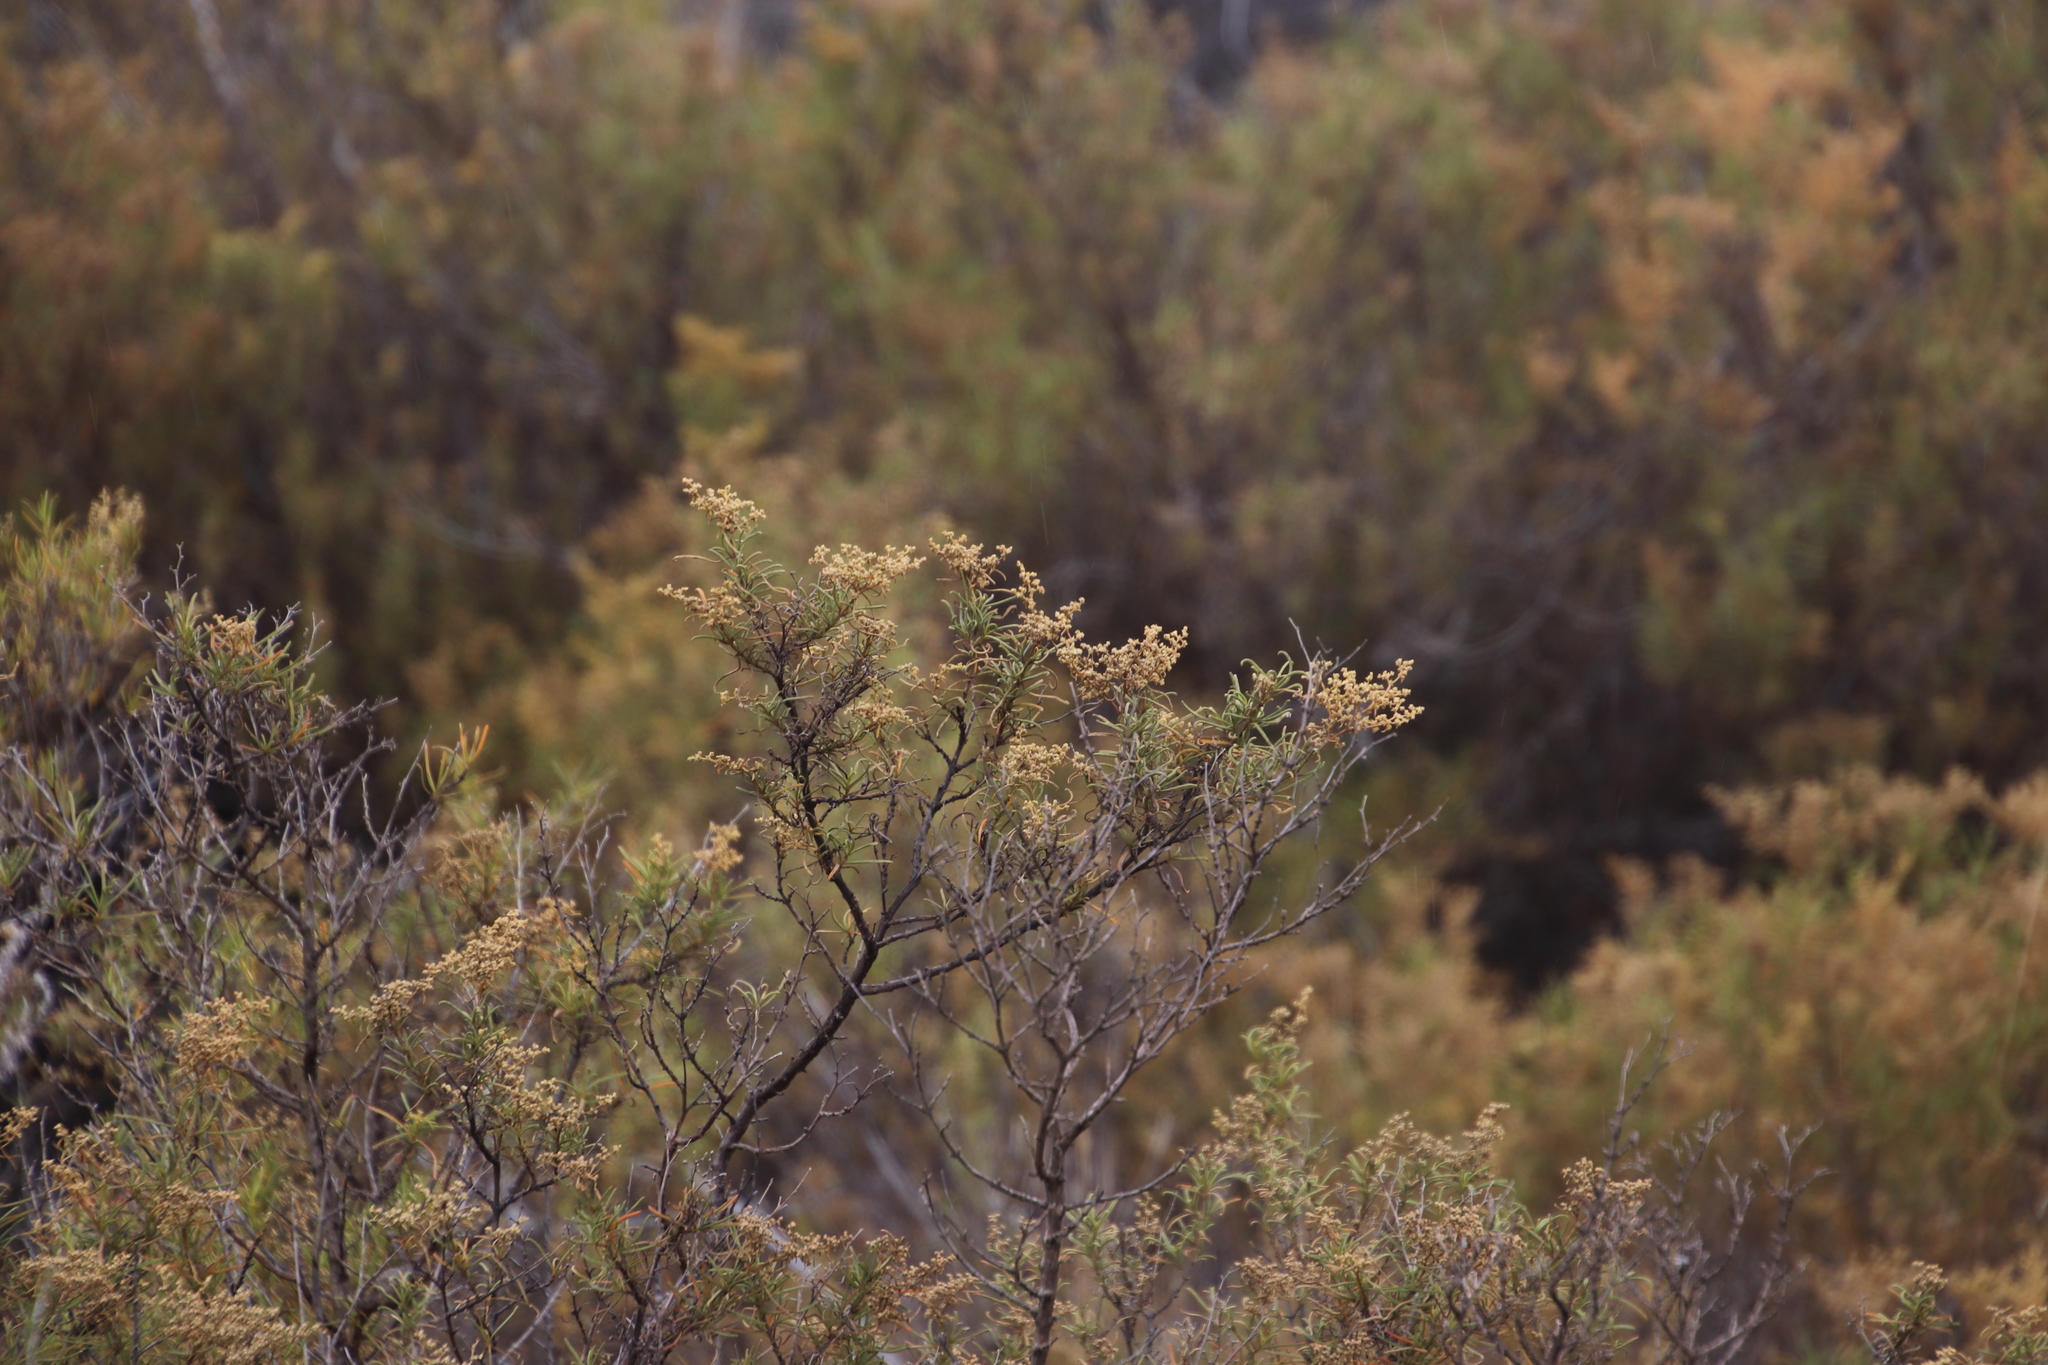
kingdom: Plantae
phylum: Tracheophyta
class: Magnoliopsida
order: Caryophyllales
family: Aizoaceae
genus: Aizoon
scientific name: Aizoon africanum
